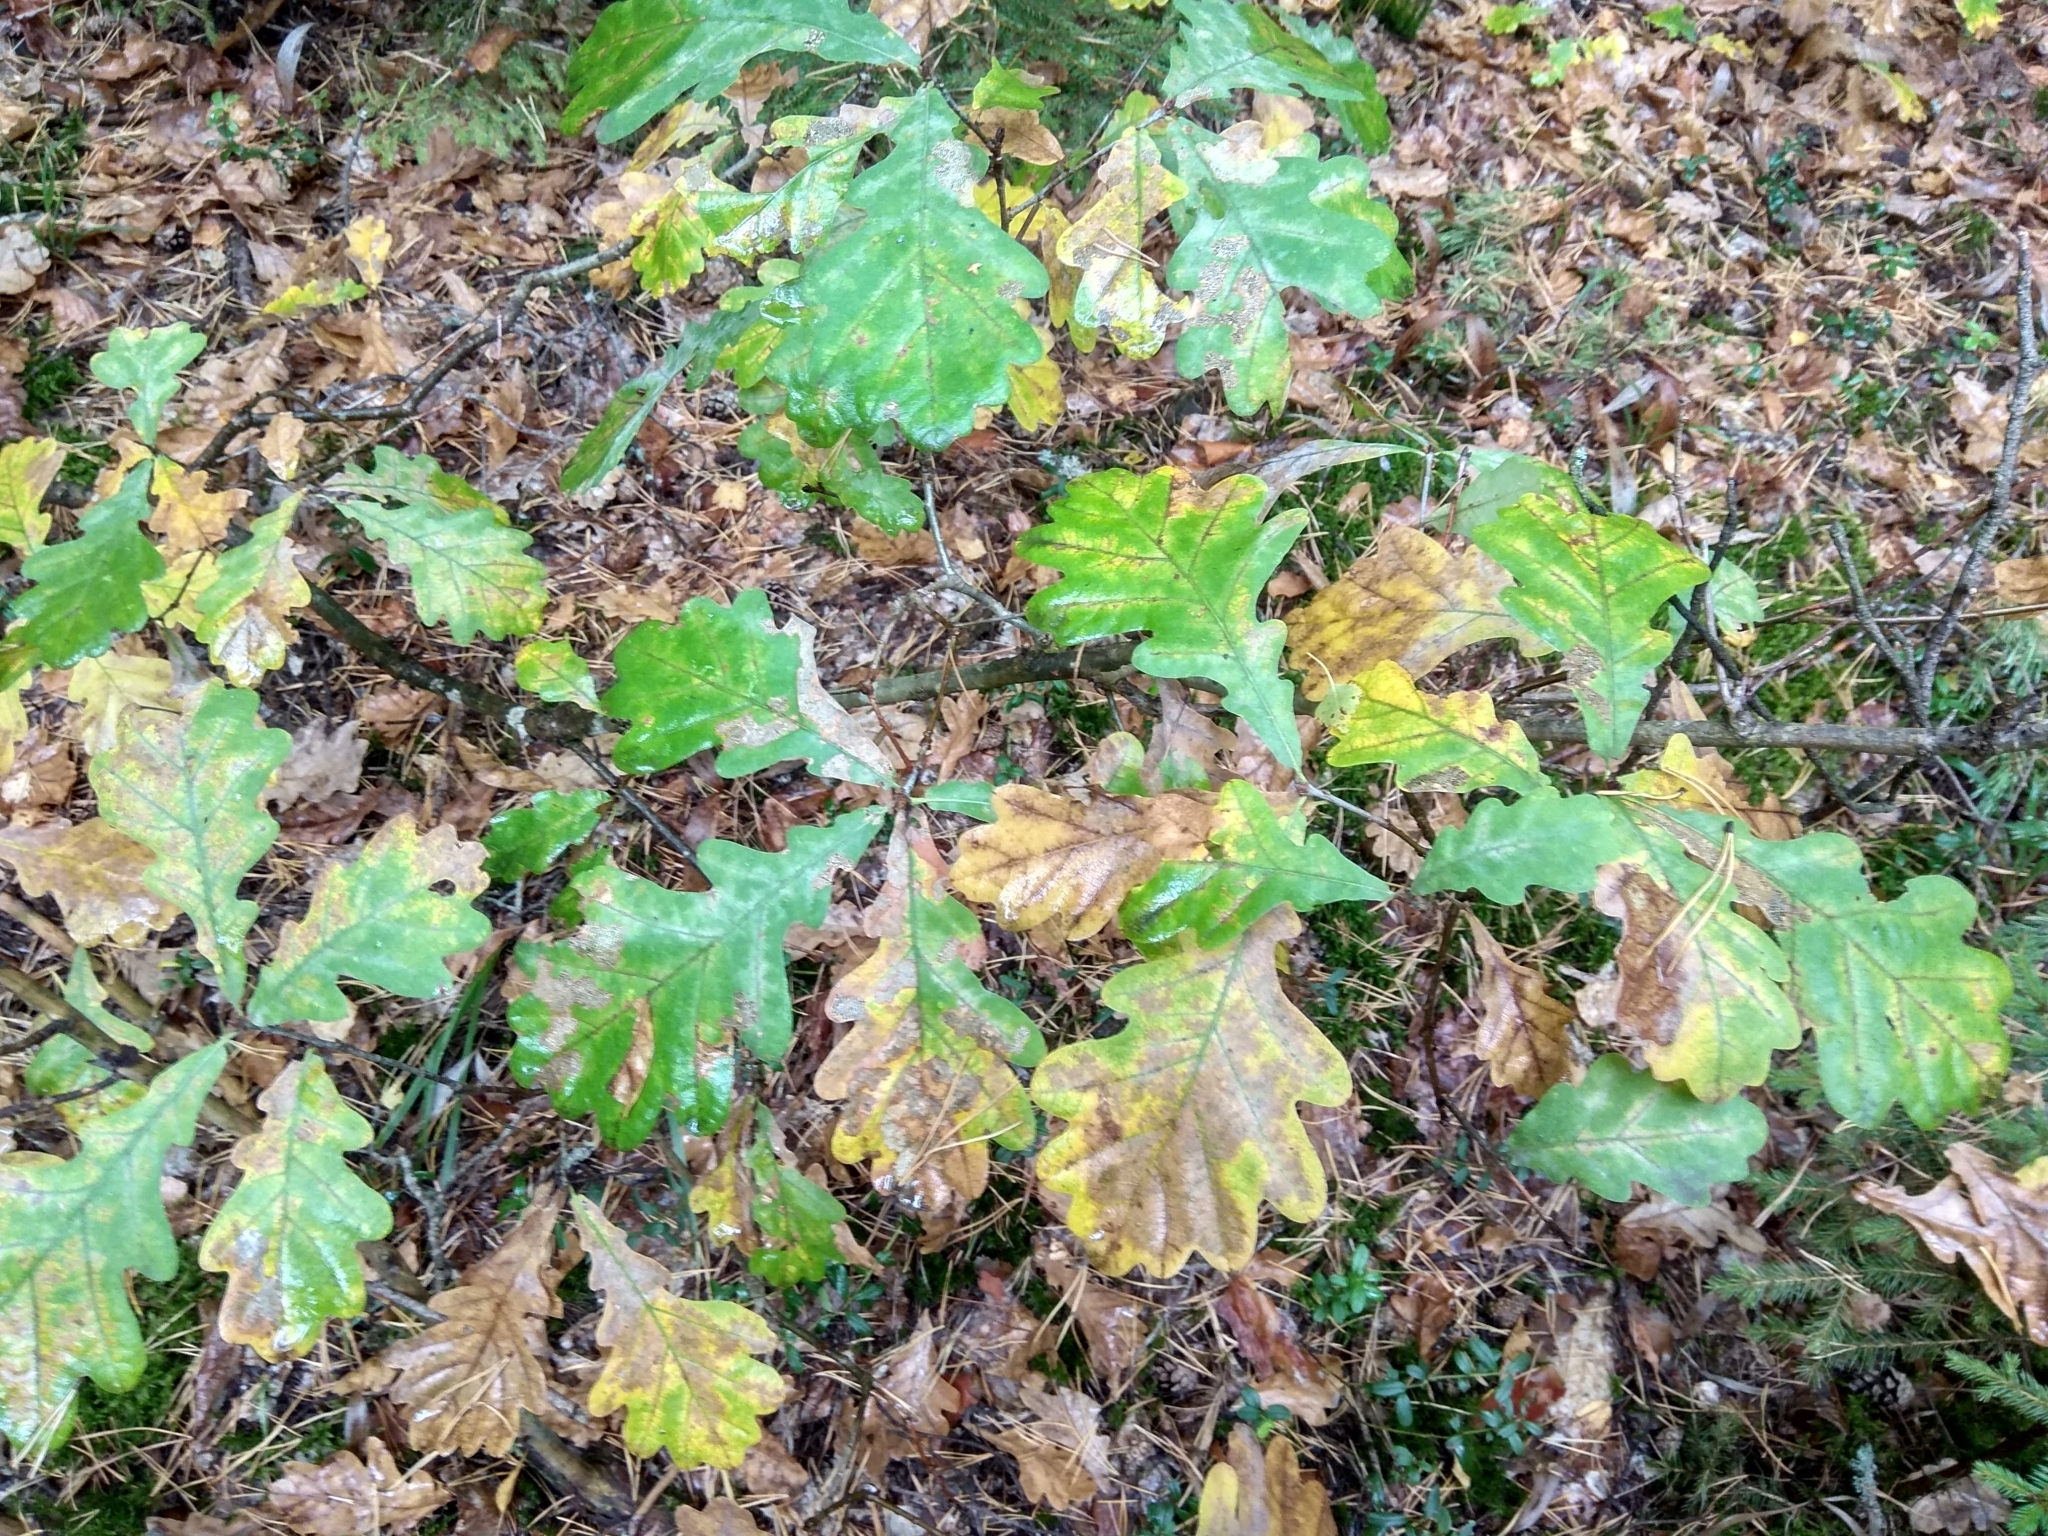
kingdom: Plantae
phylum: Tracheophyta
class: Magnoliopsida
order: Fagales
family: Fagaceae
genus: Quercus
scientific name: Quercus robur
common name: Pedunculate oak
